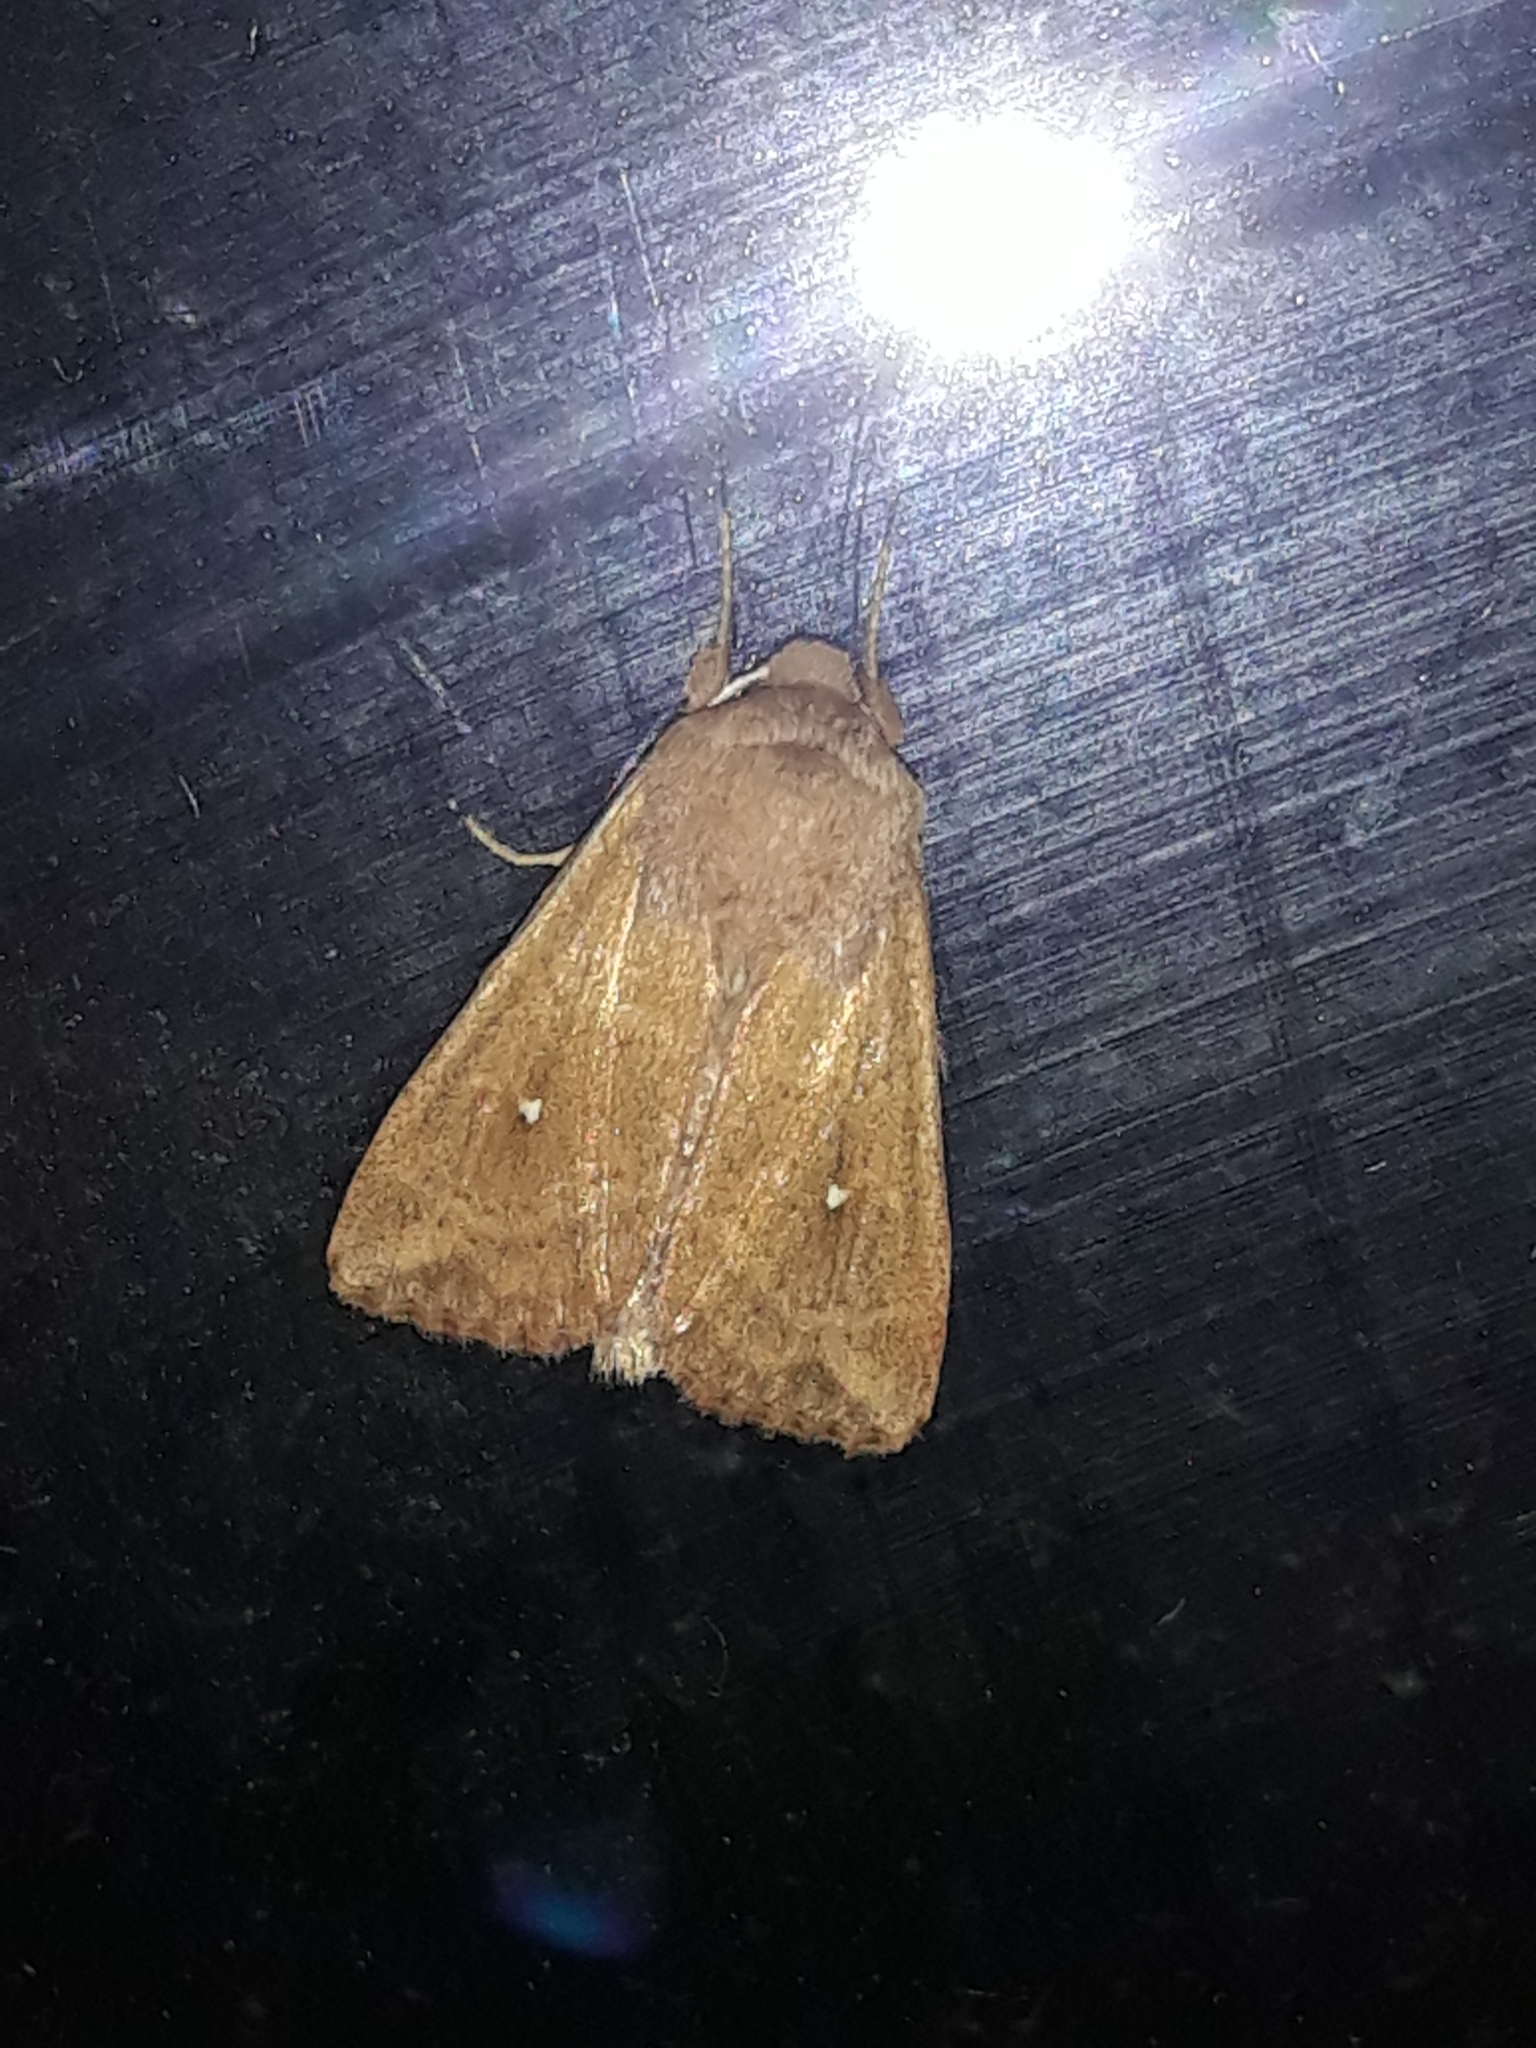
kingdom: Animalia
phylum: Arthropoda
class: Insecta
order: Lepidoptera
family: Noctuidae
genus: Mythimna
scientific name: Mythimna albipuncta
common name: White-point
